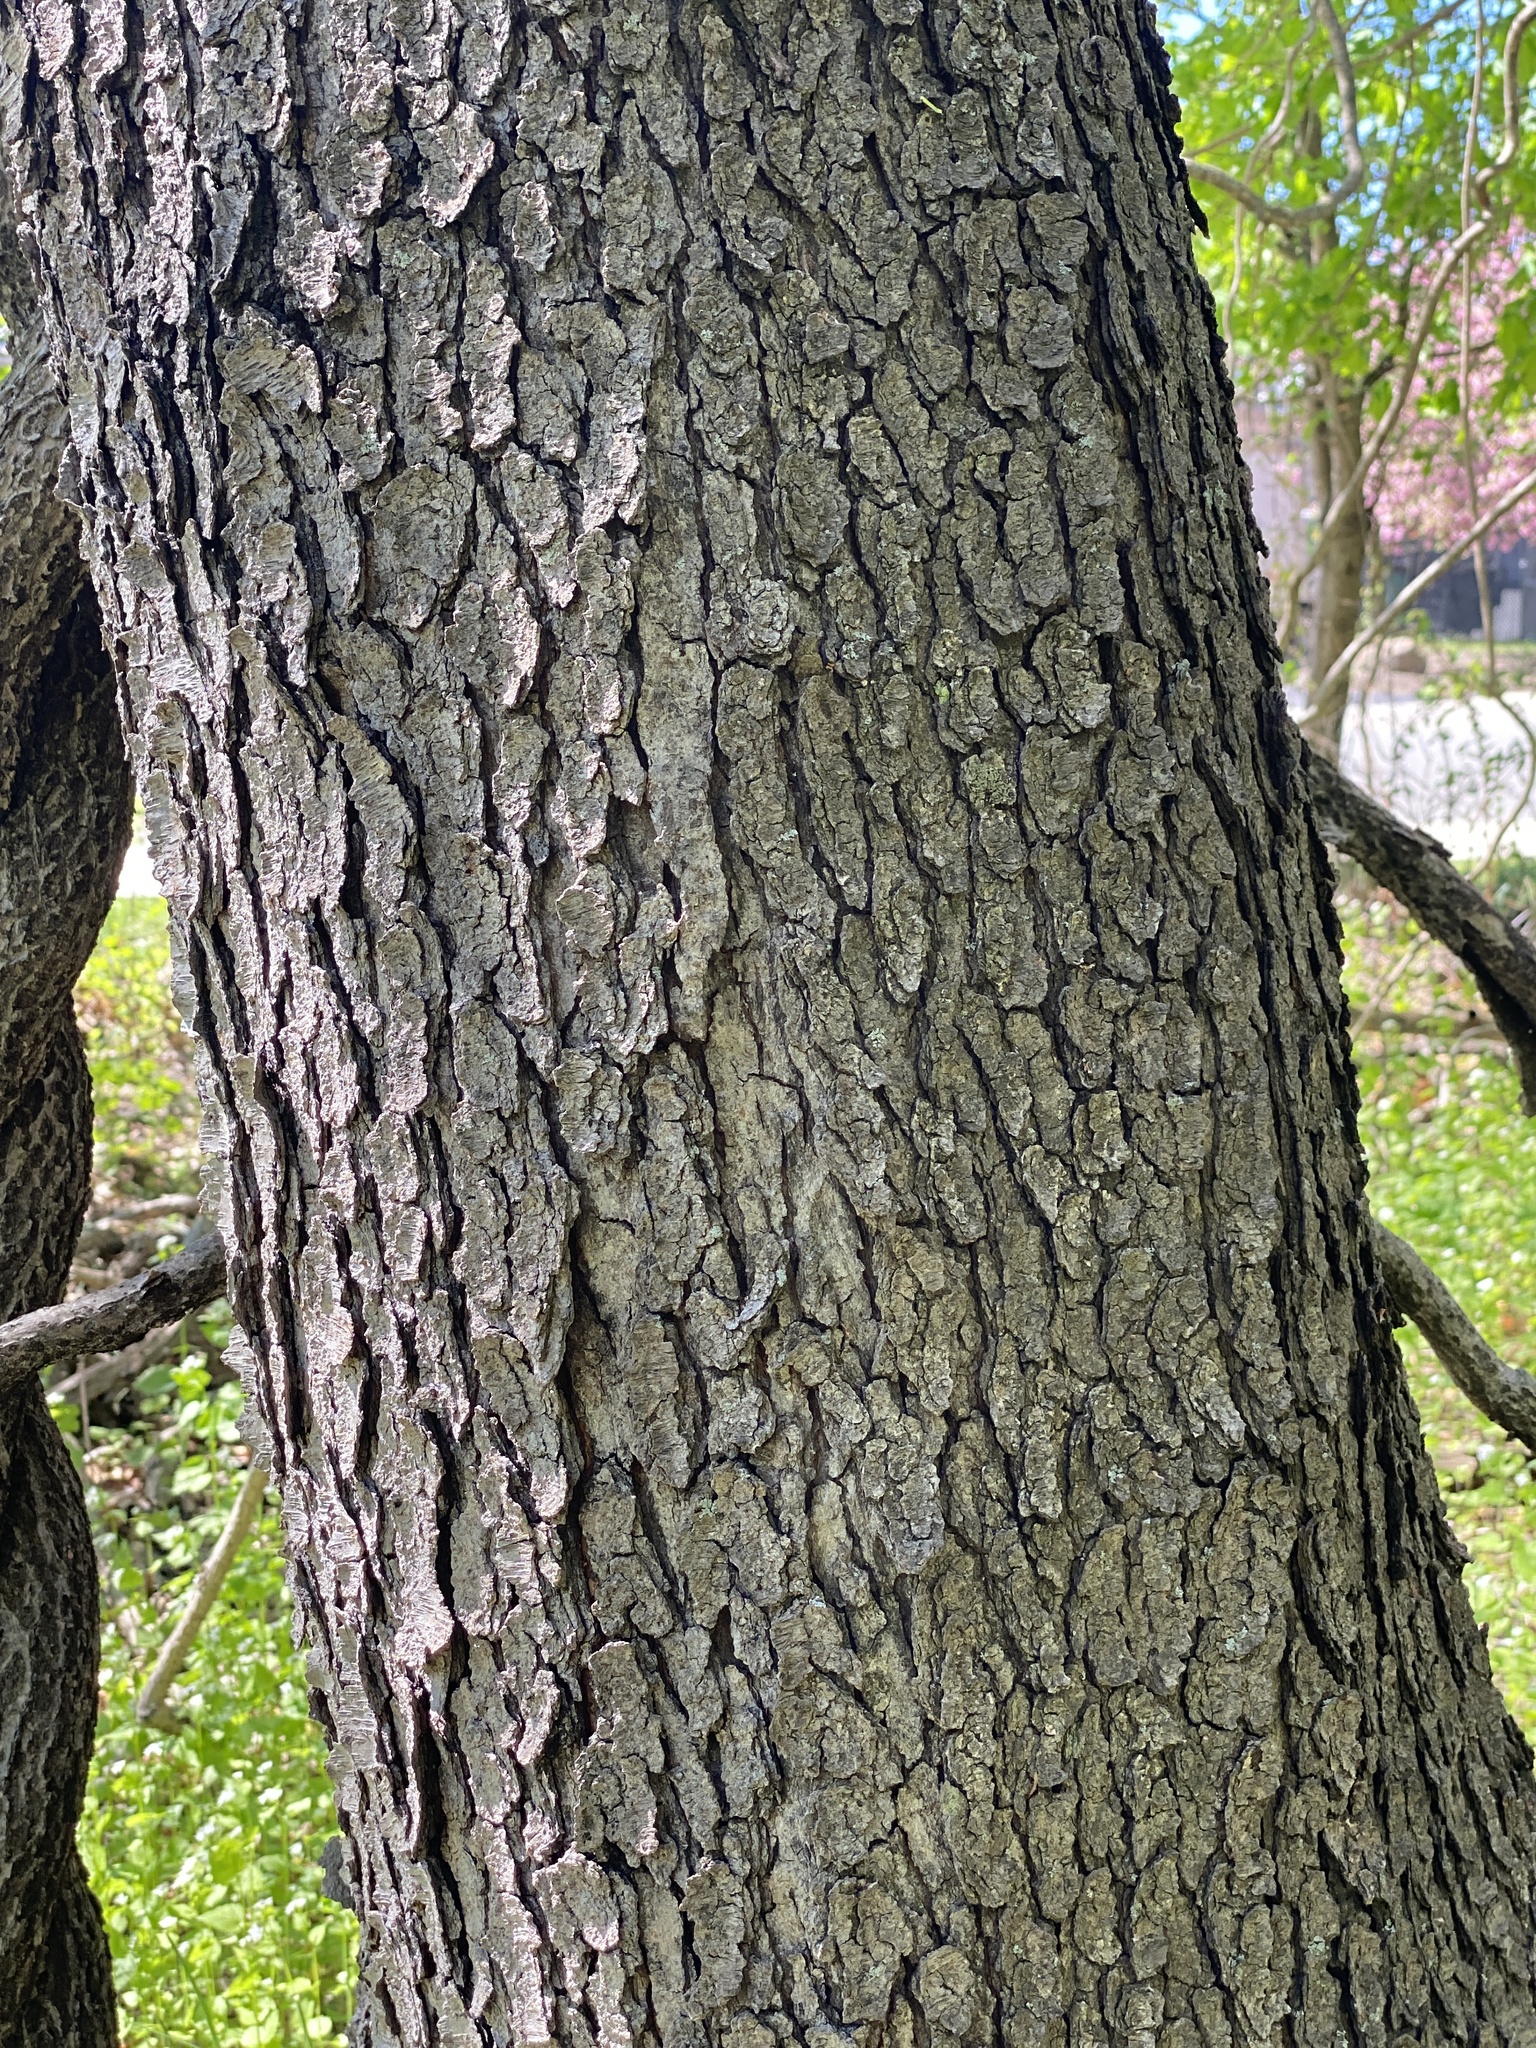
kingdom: Plantae
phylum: Tracheophyta
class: Magnoliopsida
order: Rosales
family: Rosaceae
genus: Prunus
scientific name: Prunus serotina
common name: Black cherry
